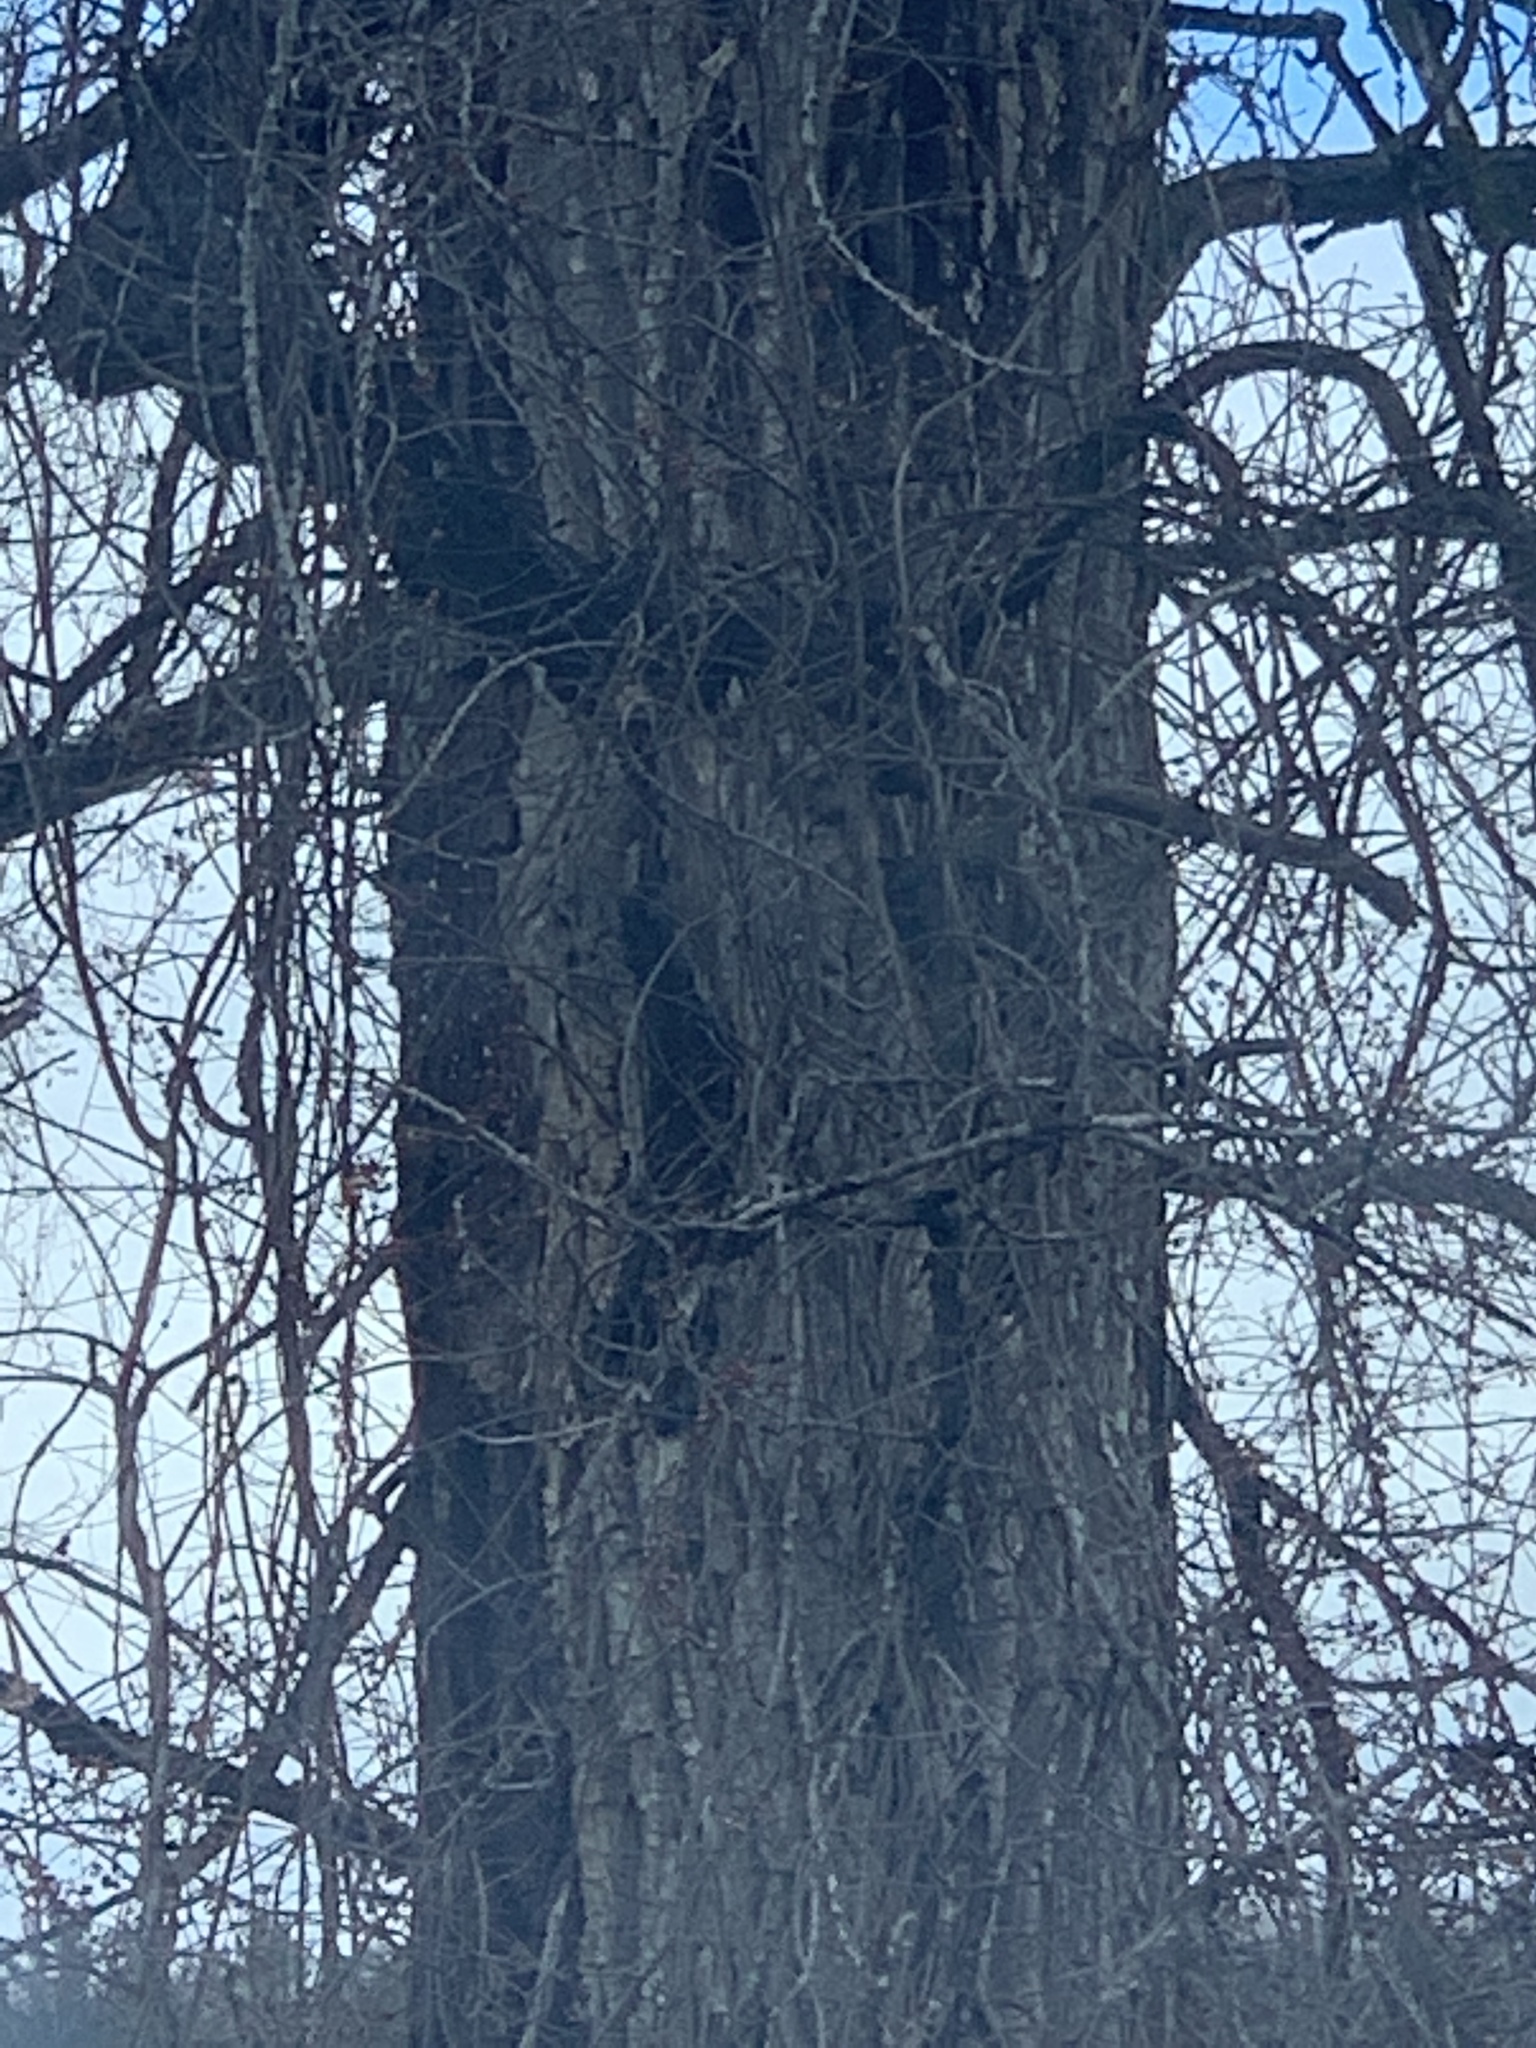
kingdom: Plantae
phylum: Tracheophyta
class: Magnoliopsida
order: Malpighiales
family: Salicaceae
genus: Populus
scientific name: Populus deltoides
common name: Eastern cottonwood
